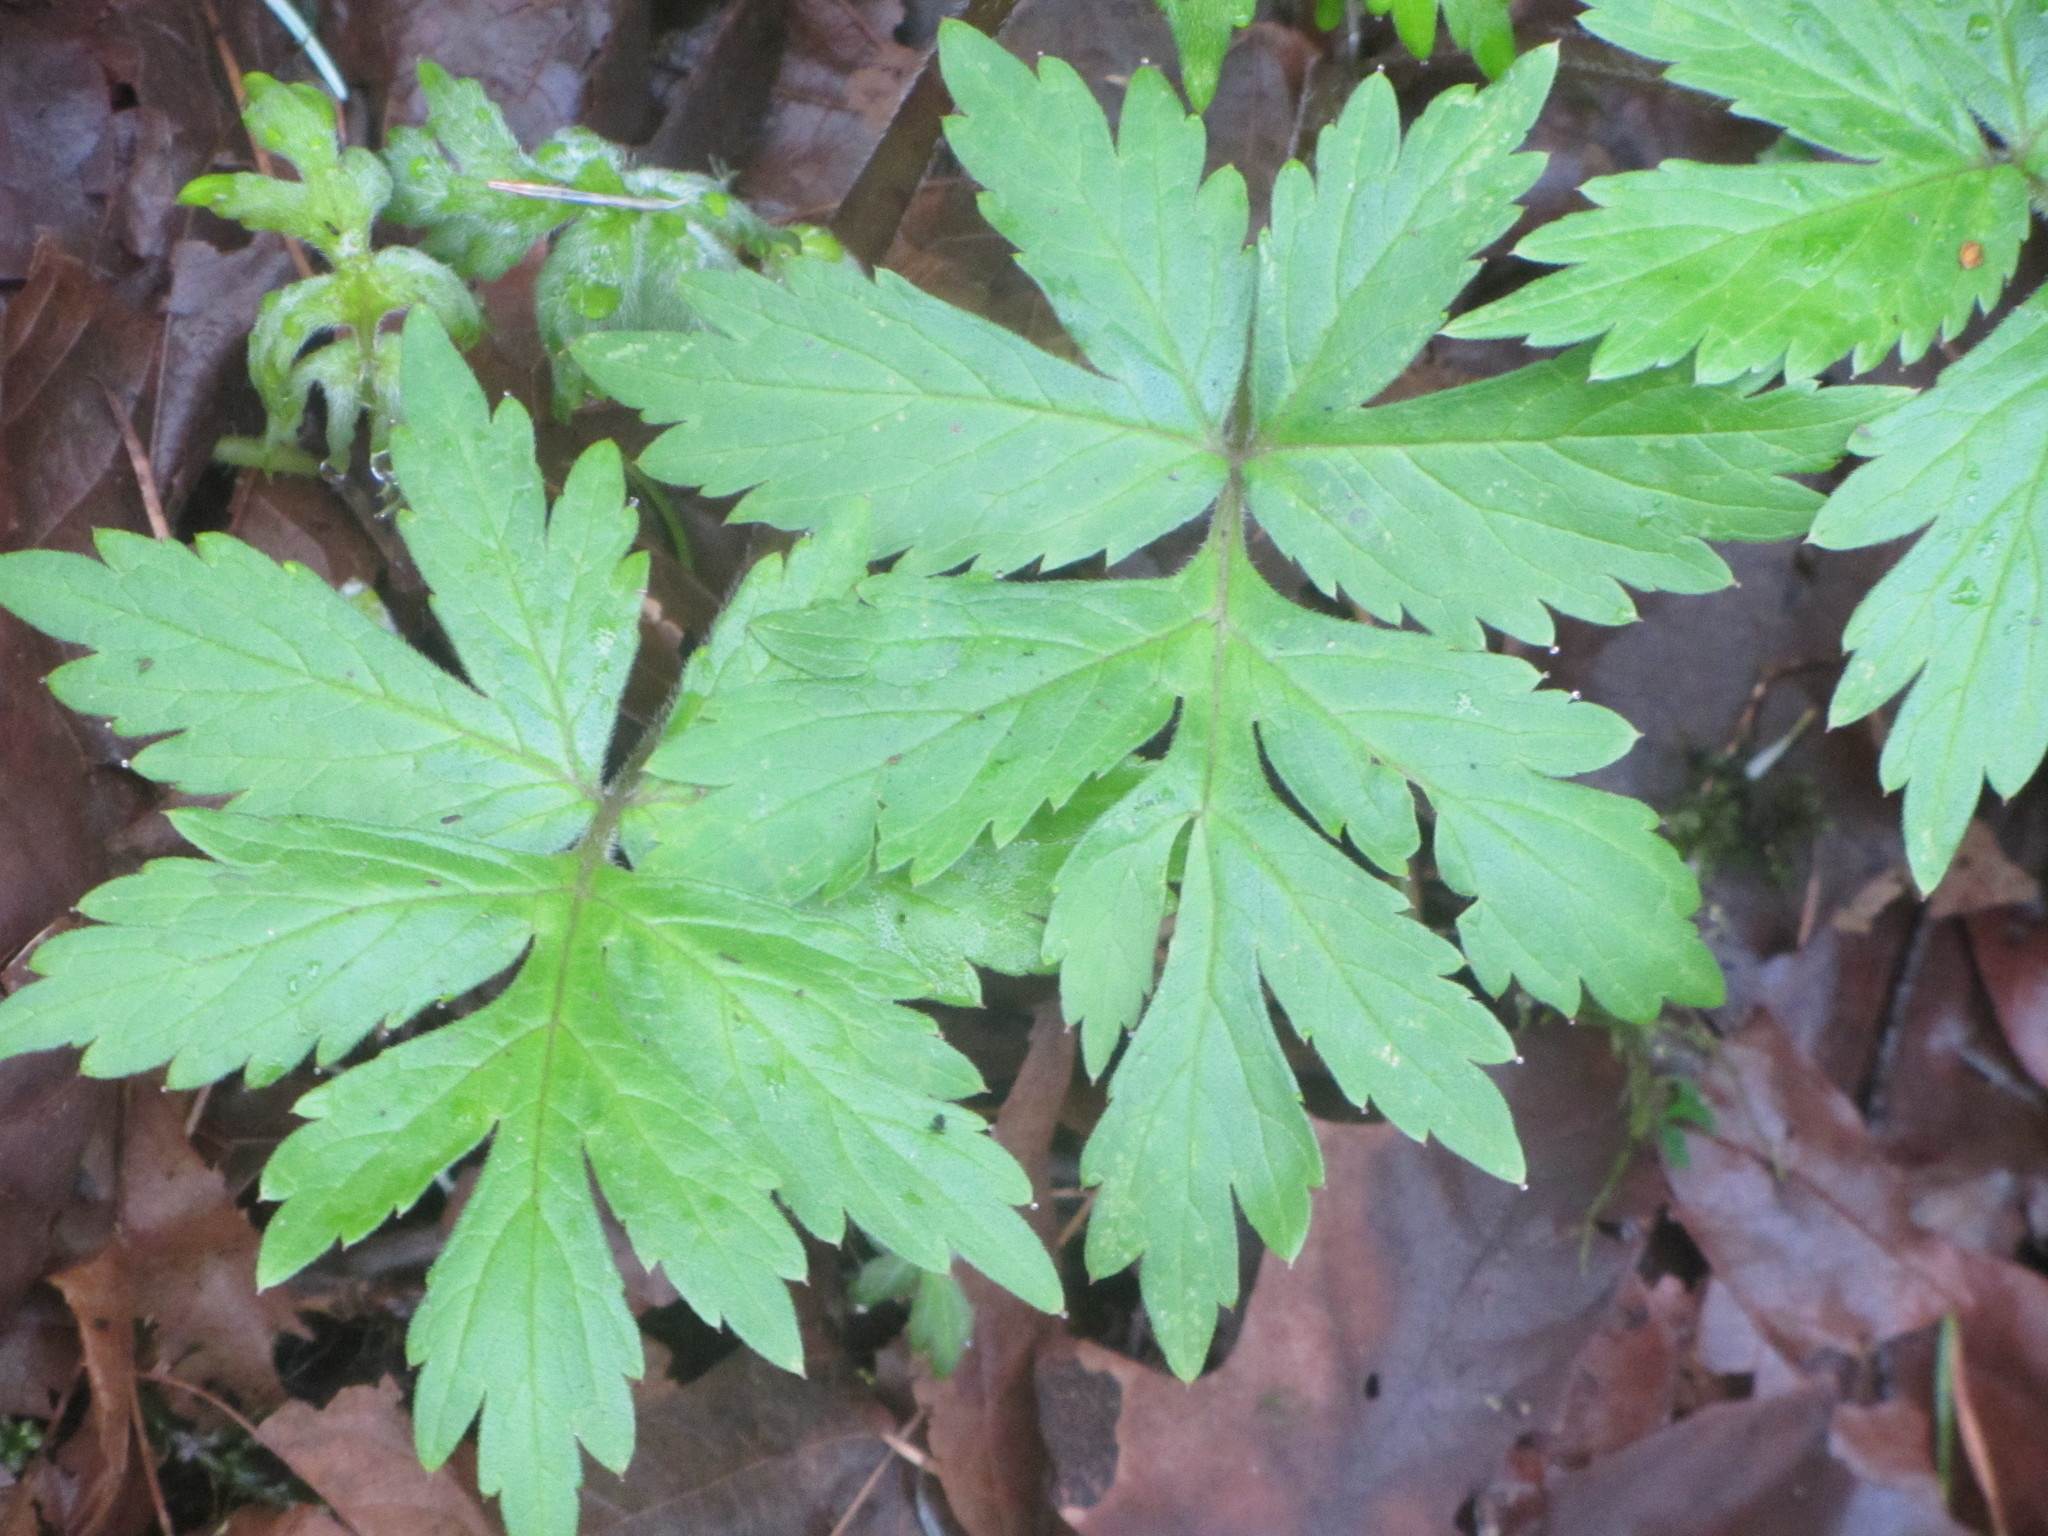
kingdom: Plantae
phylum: Tracheophyta
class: Magnoliopsida
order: Boraginales
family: Hydrophyllaceae
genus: Hydrophyllum
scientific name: Hydrophyllum tenuipes
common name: Pacific waterleaf
